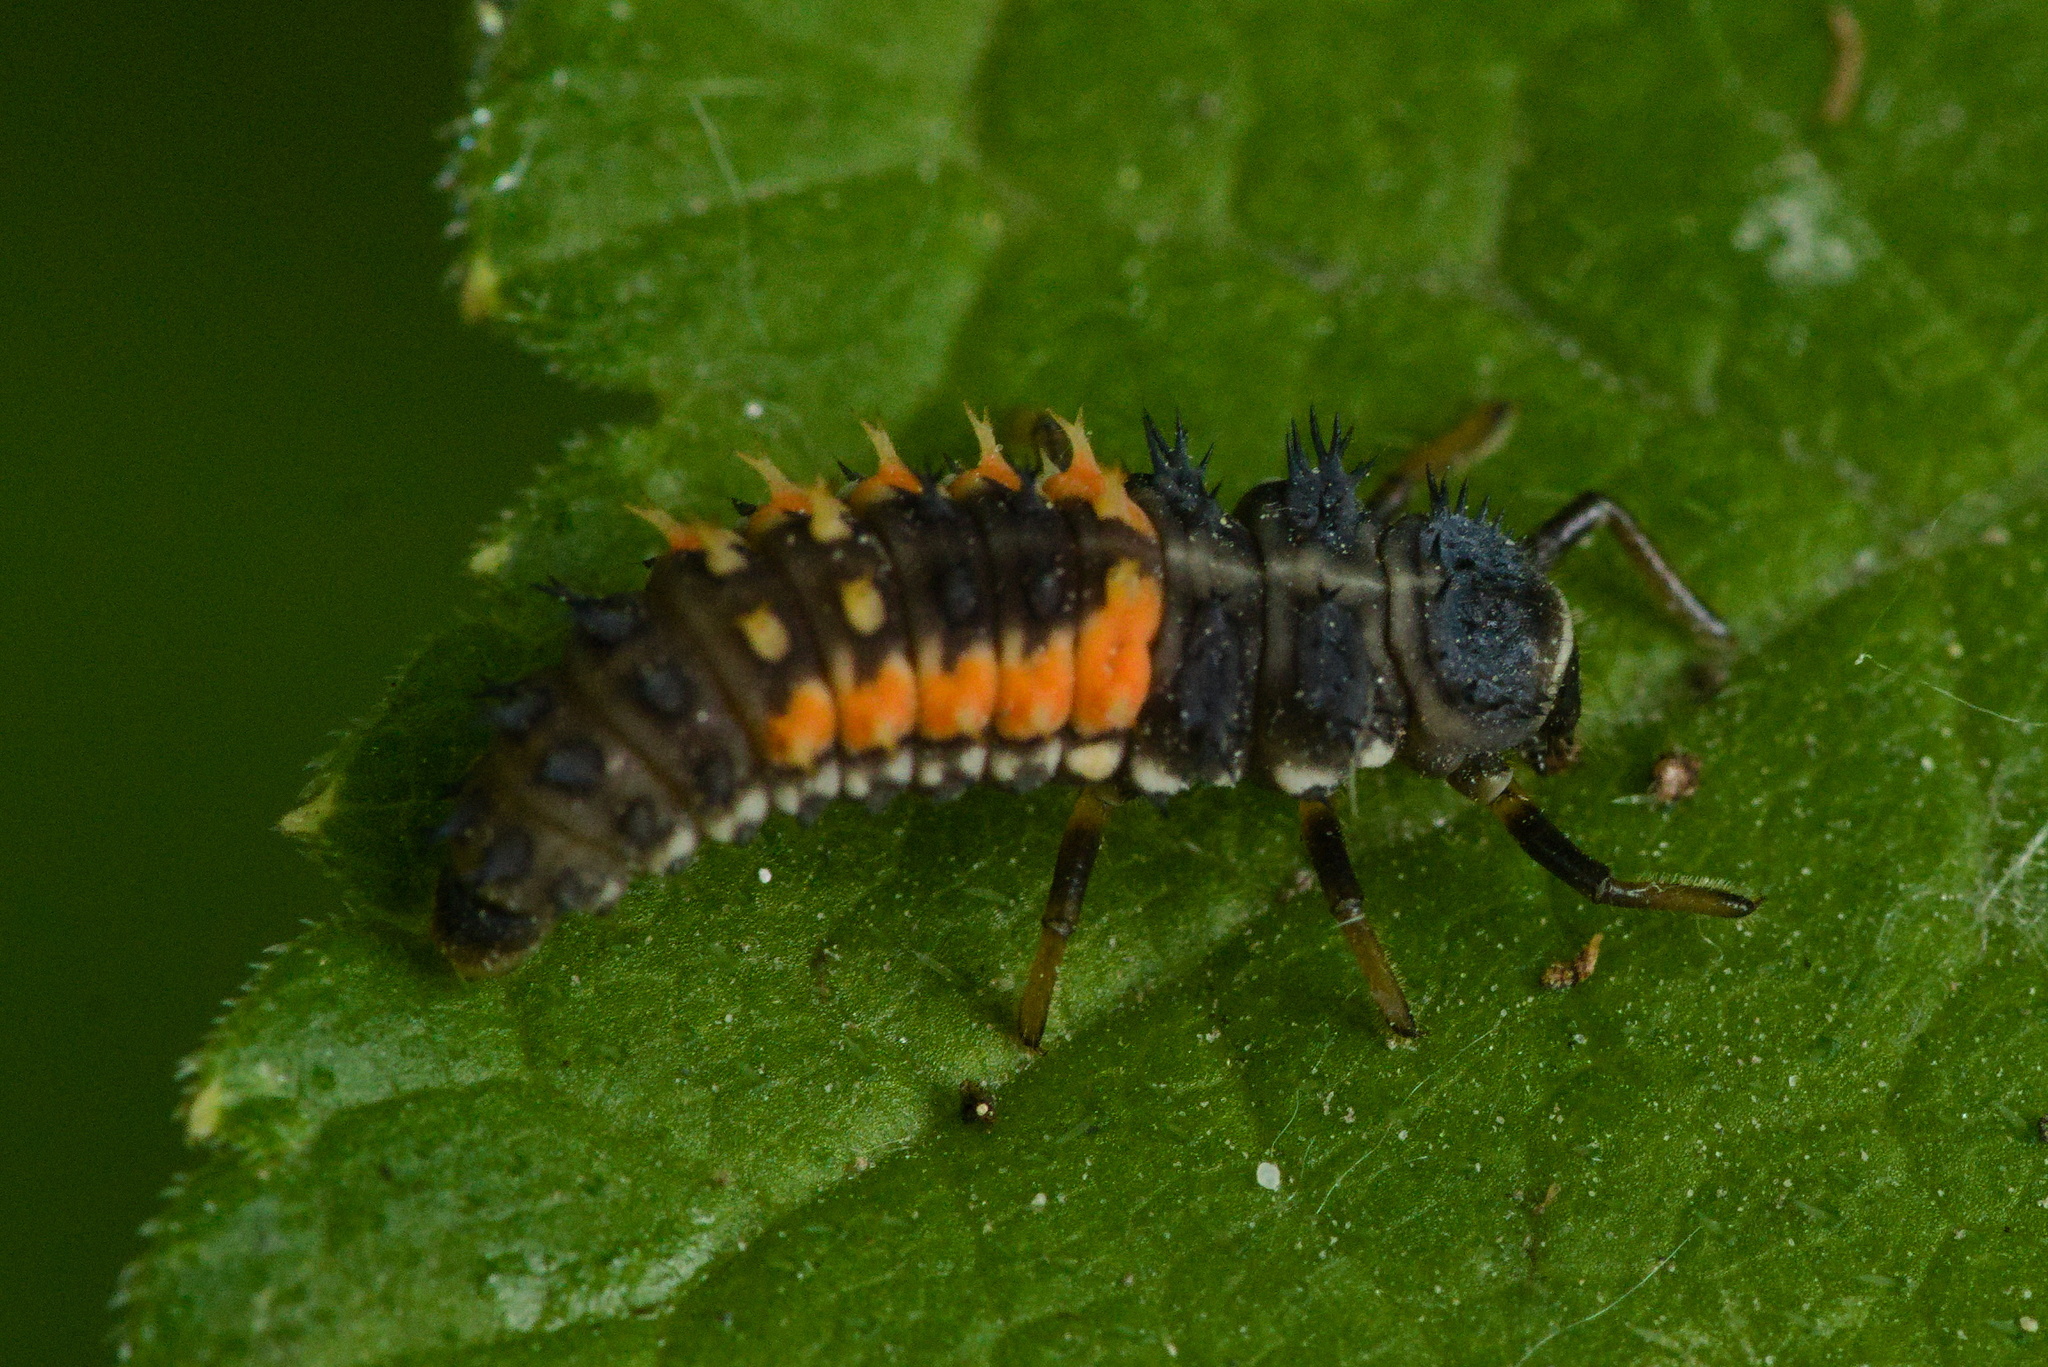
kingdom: Animalia
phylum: Arthropoda
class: Insecta
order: Coleoptera
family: Coccinellidae
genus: Harmonia
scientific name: Harmonia axyridis
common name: Harlequin ladybird
